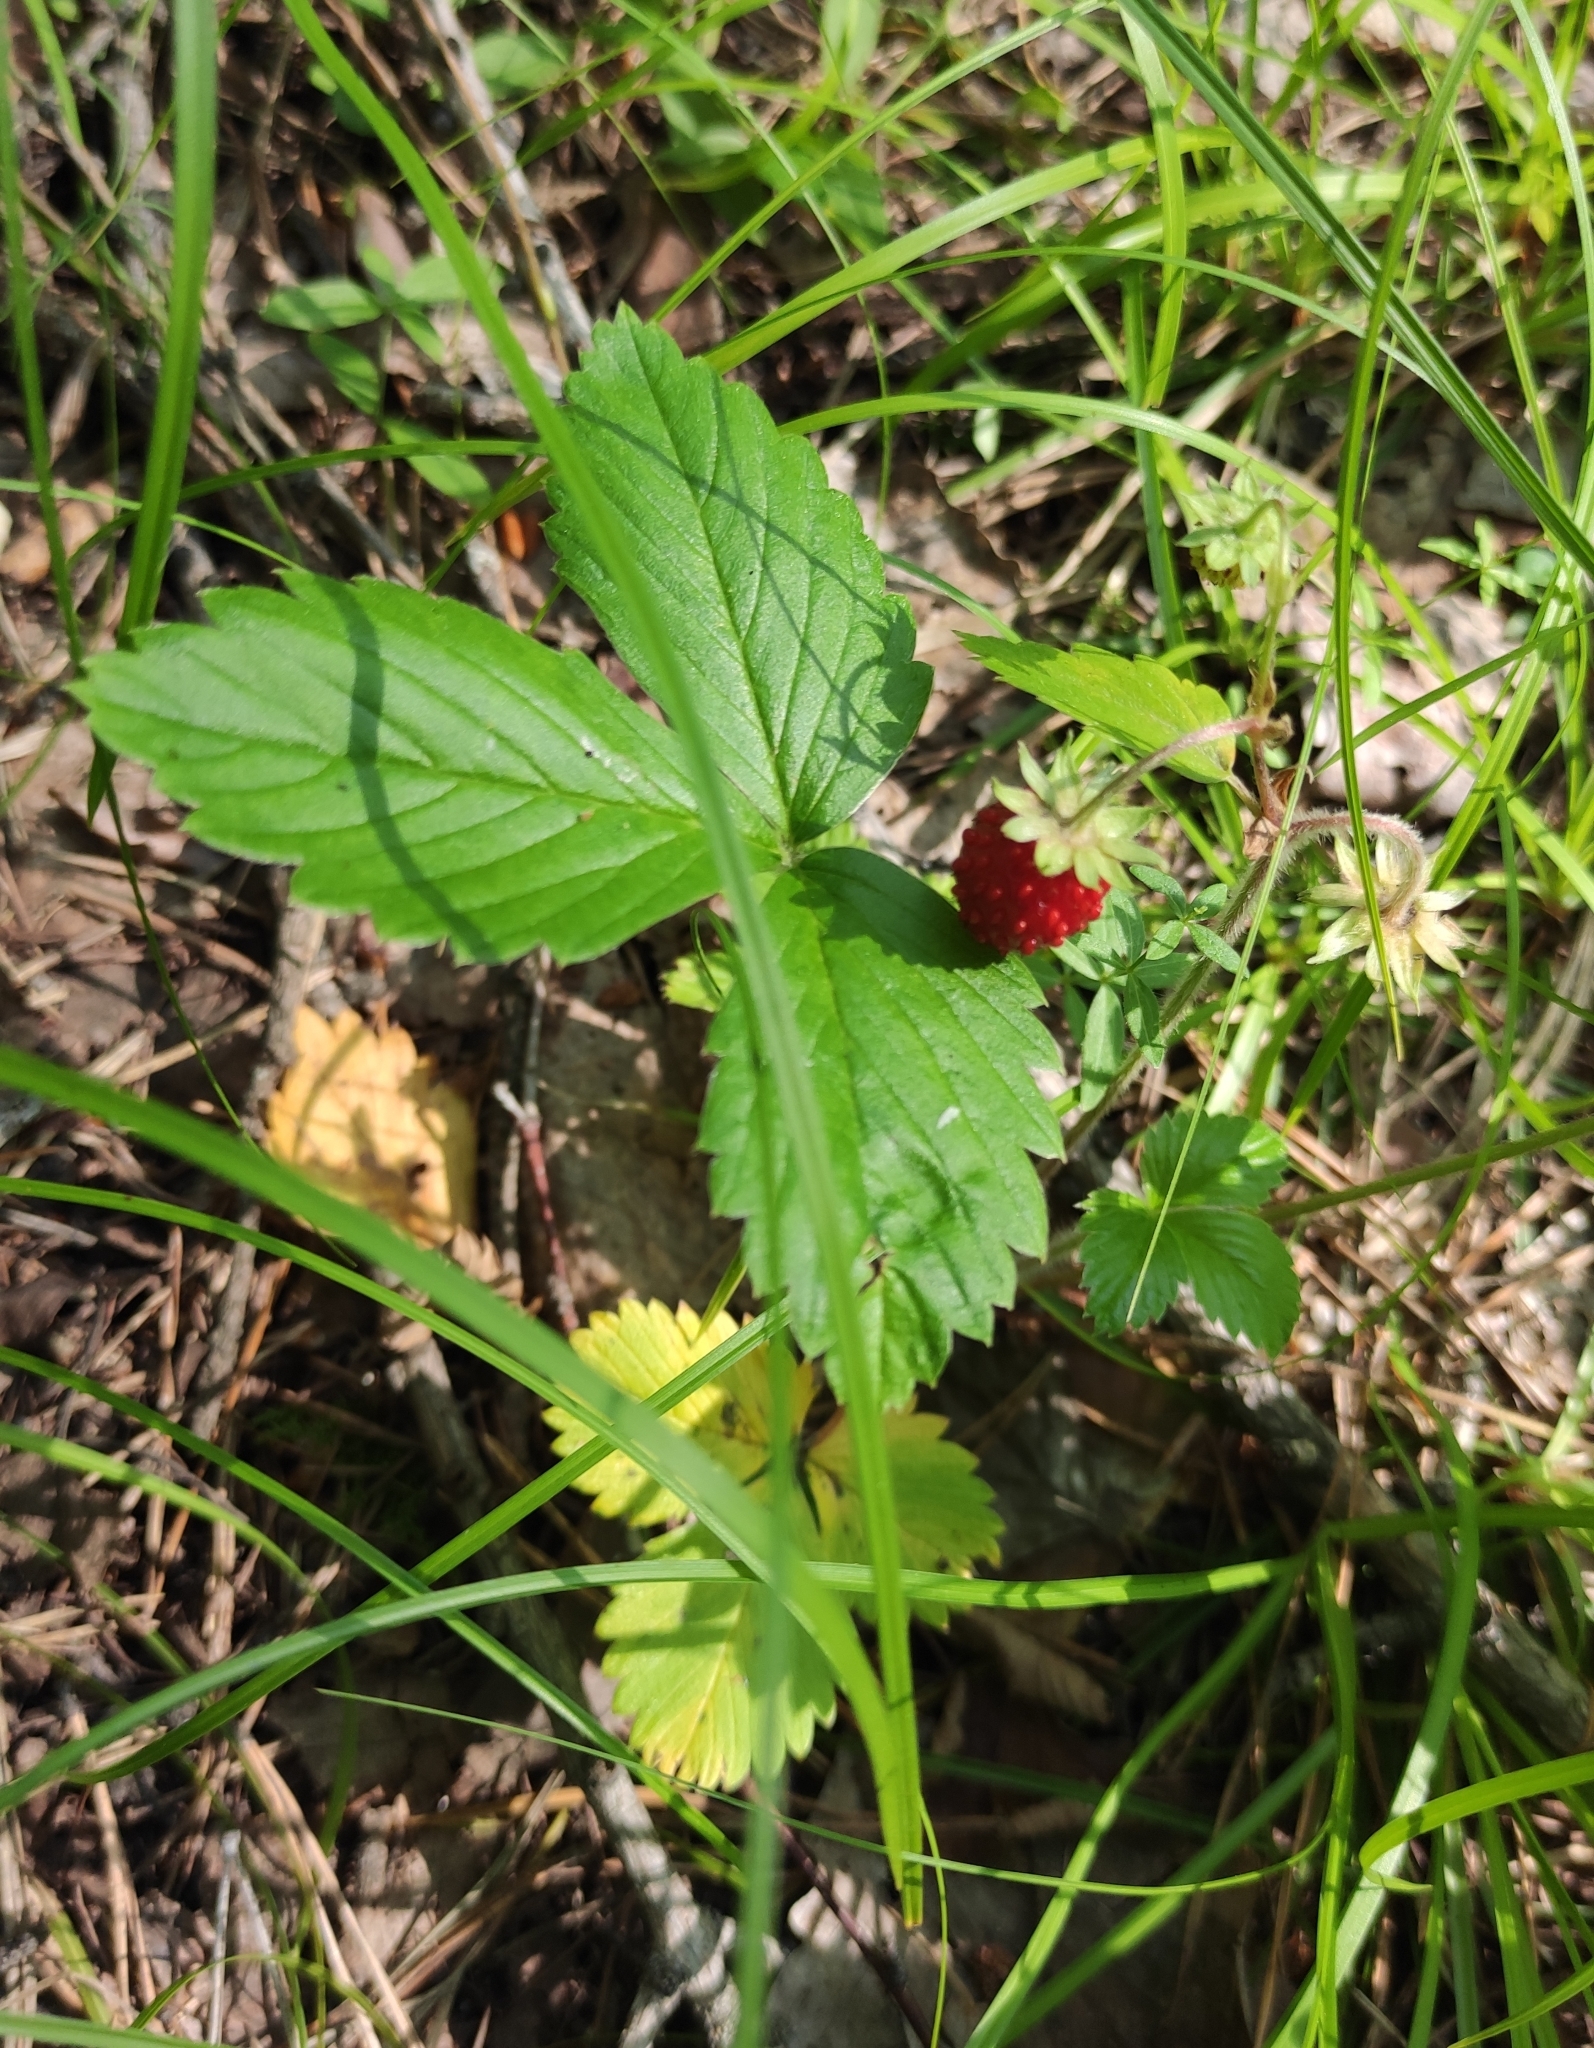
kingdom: Plantae
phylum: Tracheophyta
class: Magnoliopsida
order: Rosales
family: Rosaceae
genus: Fragaria
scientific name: Fragaria vesca
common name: Wild strawberry
